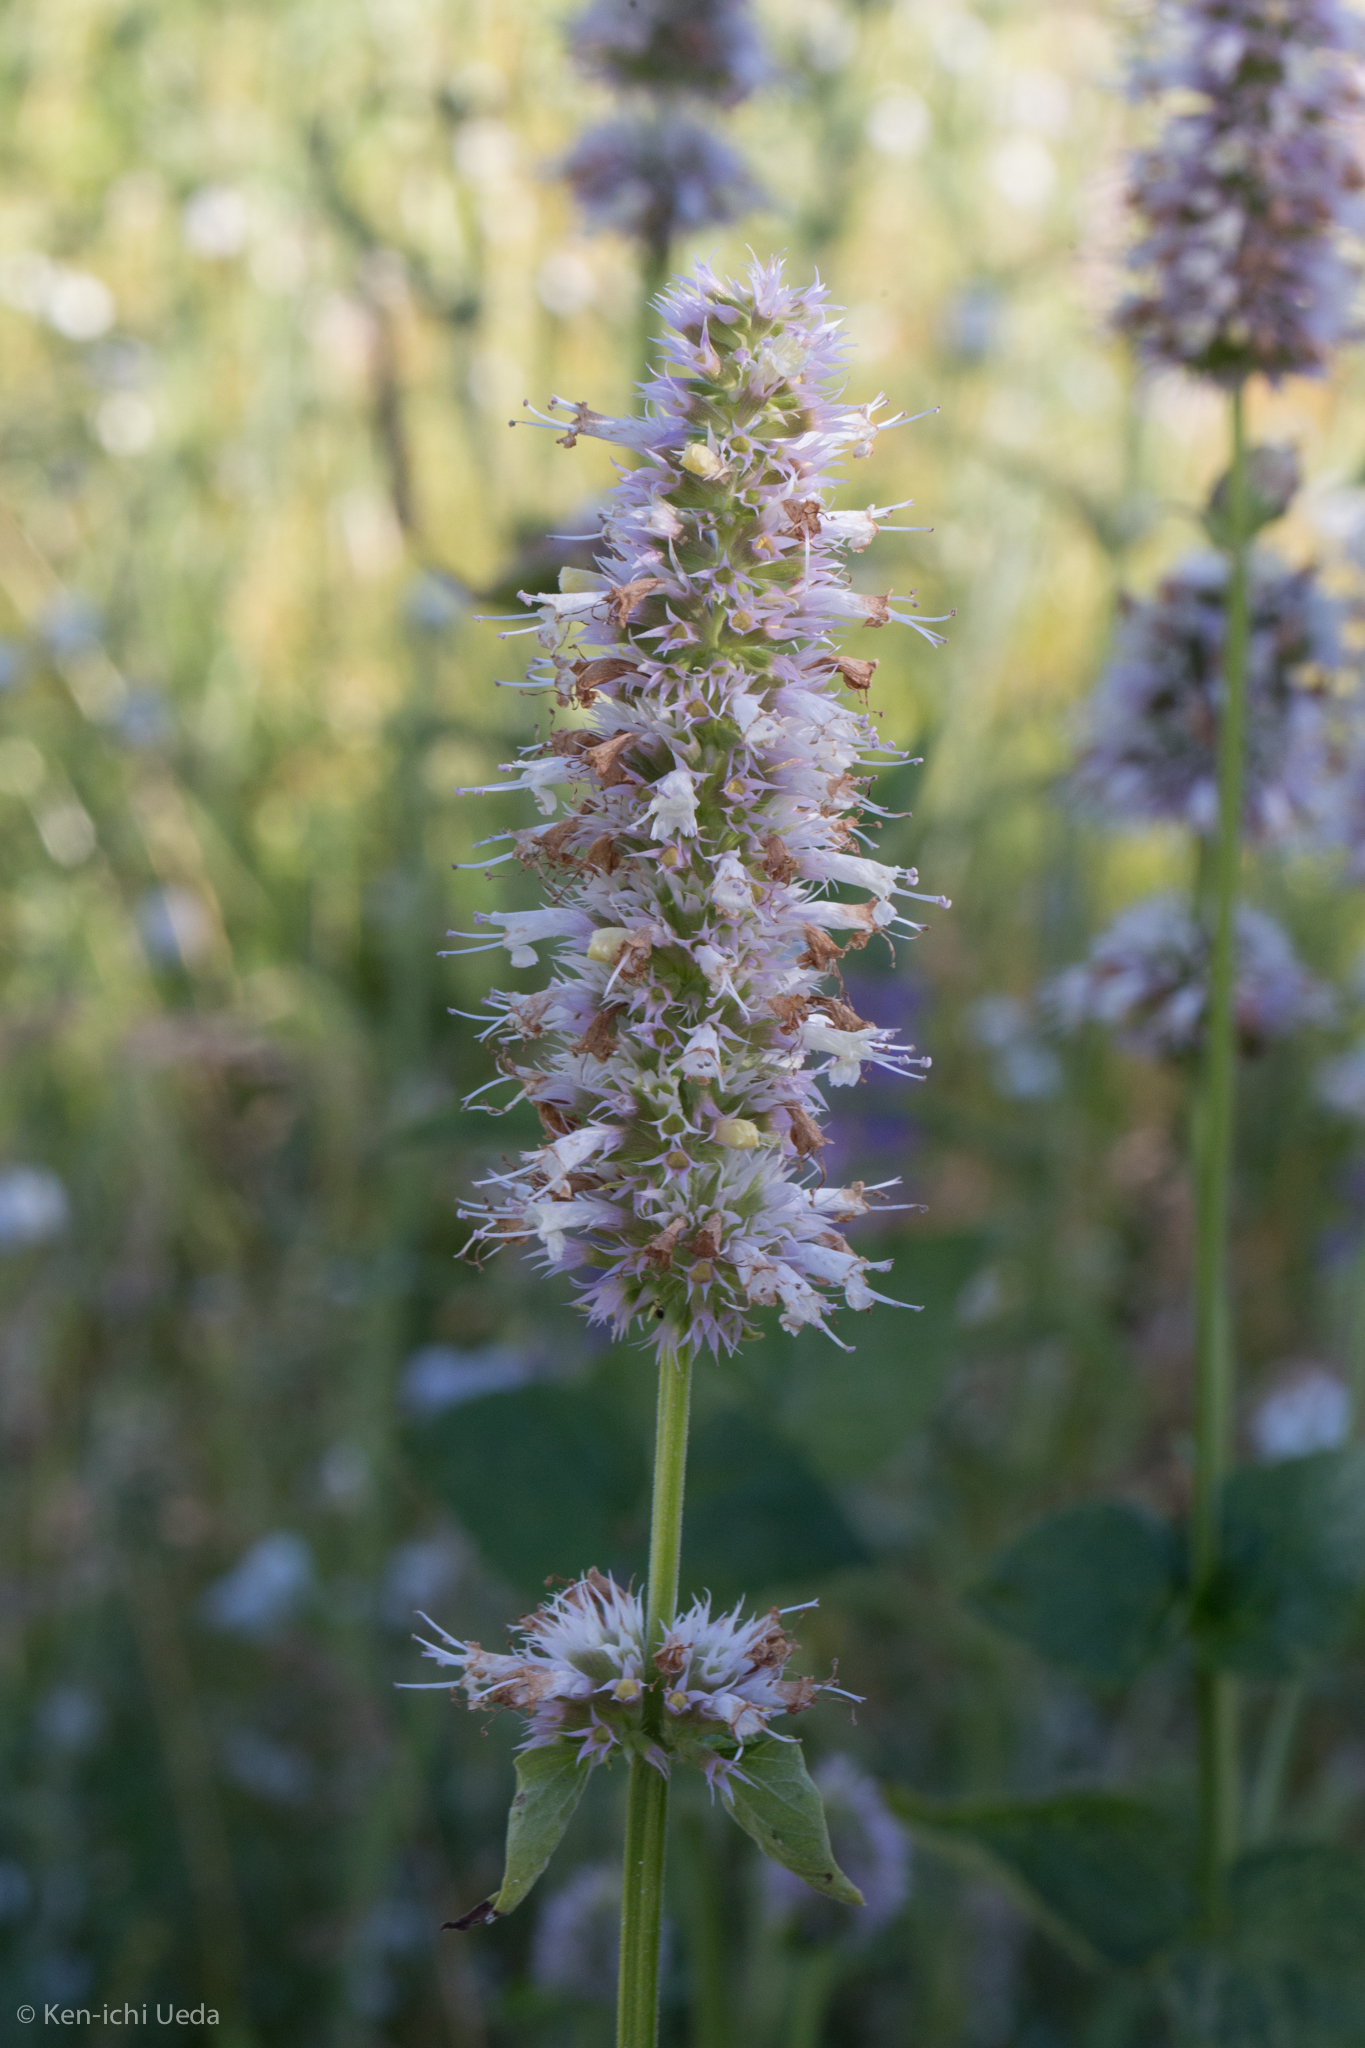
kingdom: Plantae
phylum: Tracheophyta
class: Magnoliopsida
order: Lamiales
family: Lamiaceae
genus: Agastache
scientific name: Agastache urticifolia
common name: Horsemint giant hyssop
